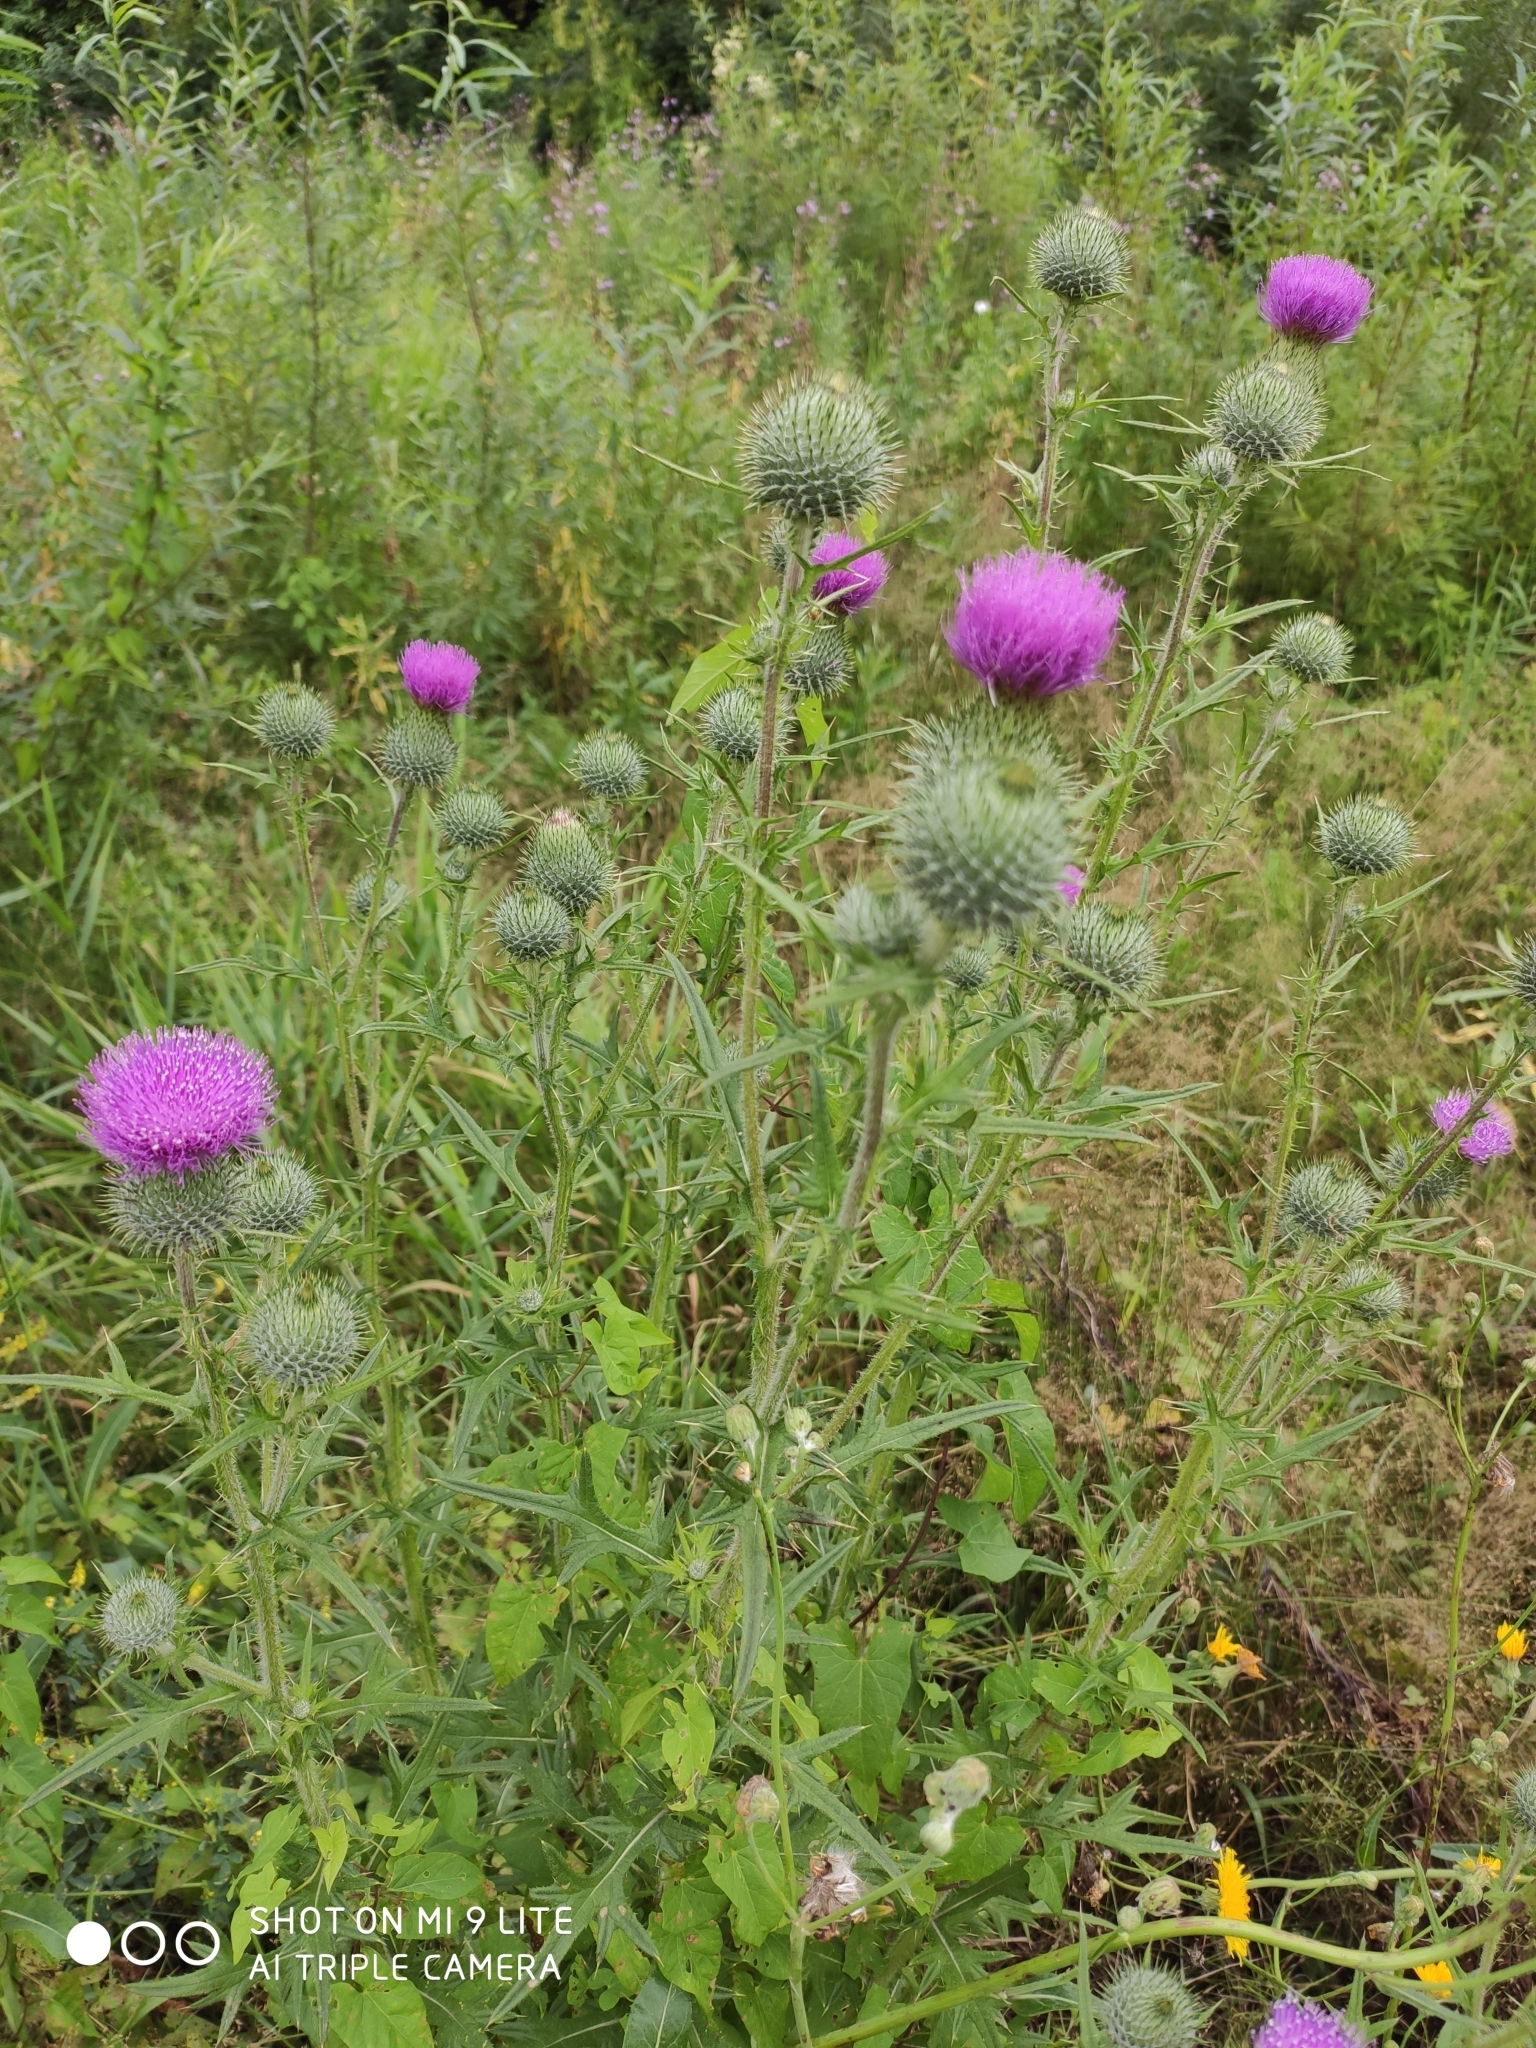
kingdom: Plantae
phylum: Tracheophyta
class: Magnoliopsida
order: Asterales
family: Asteraceae
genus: Cirsium
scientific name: Cirsium vulgare
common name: Bull thistle
